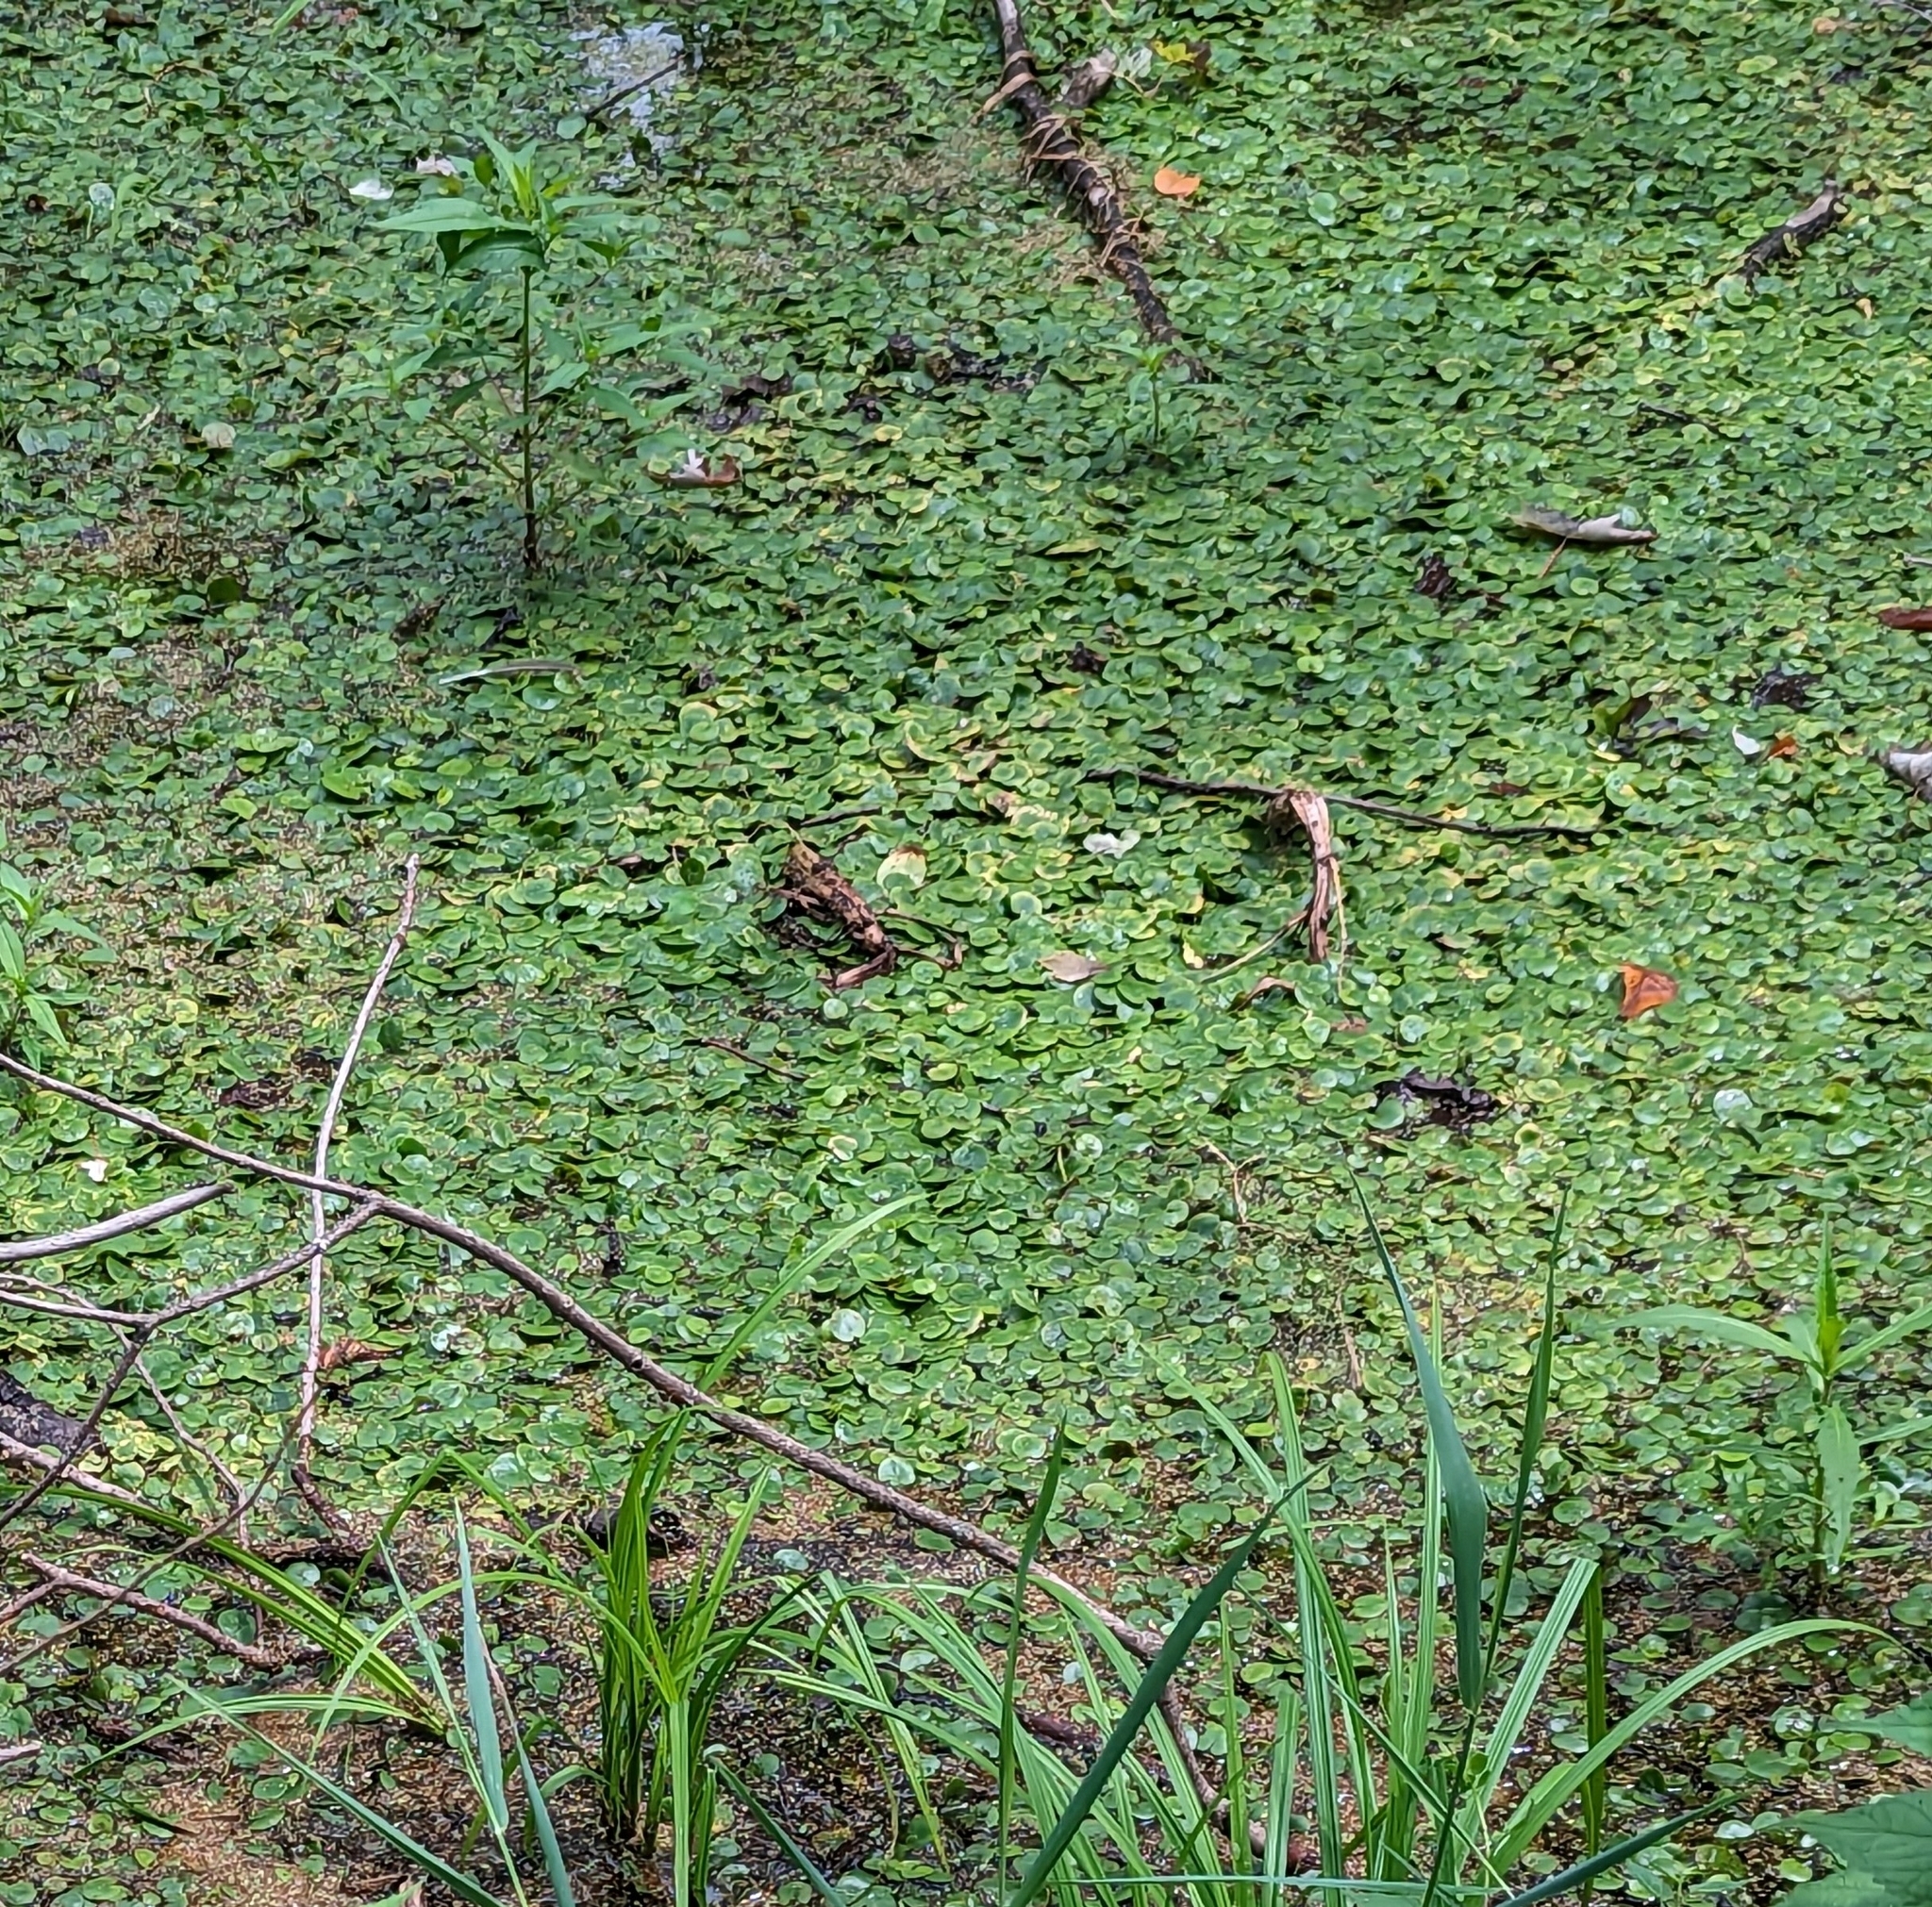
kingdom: Plantae
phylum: Tracheophyta
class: Liliopsida
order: Alismatales
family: Hydrocharitaceae
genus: Hydrocharis
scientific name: Hydrocharis morsus-ranae
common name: Frogbit
